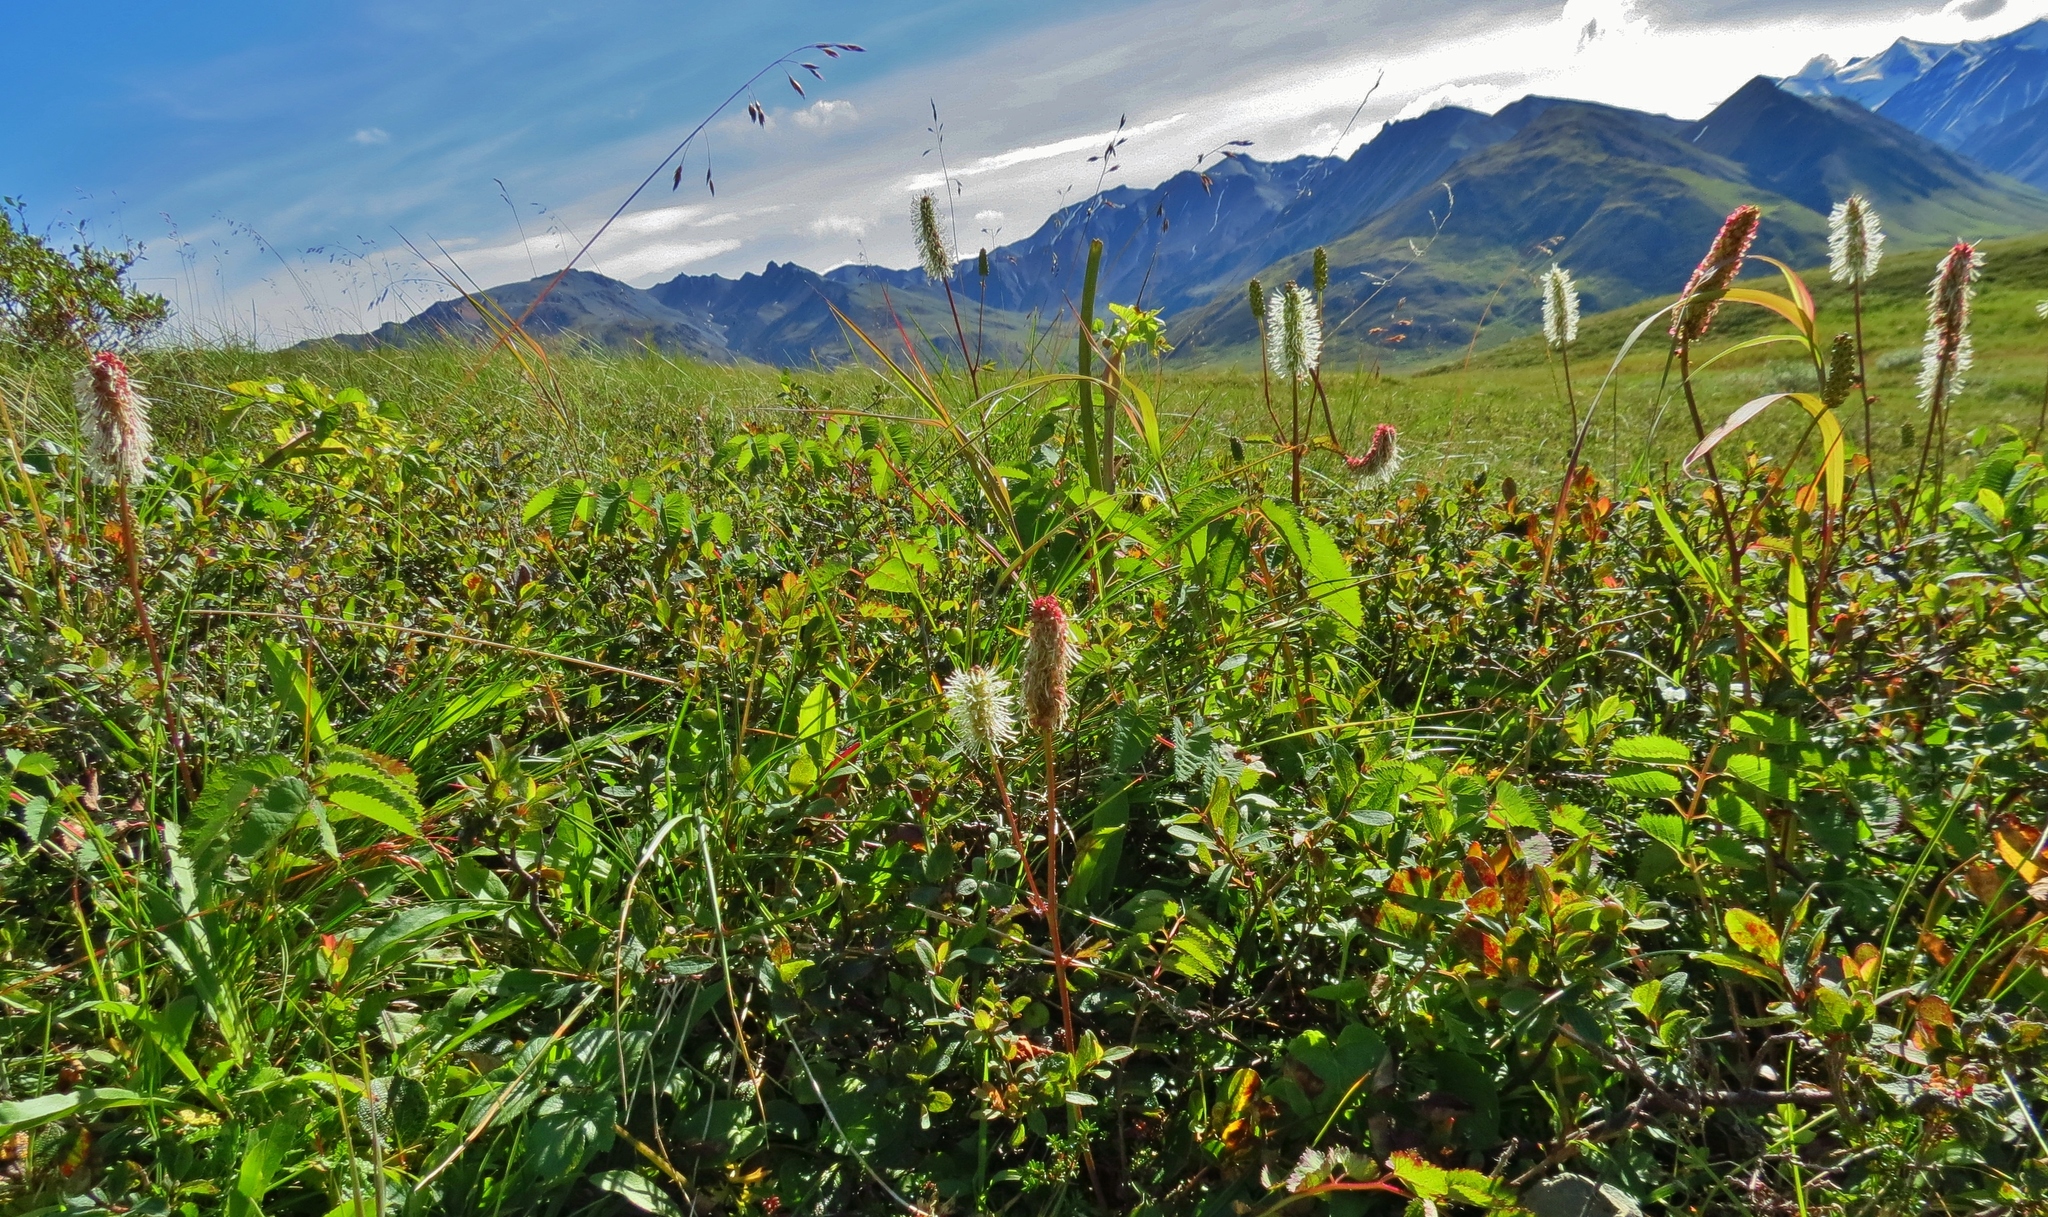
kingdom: Plantae
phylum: Tracheophyta
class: Magnoliopsida
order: Rosales
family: Rosaceae
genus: Sanguisorba
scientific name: Sanguisorba stipulata
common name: Sitka burnet
